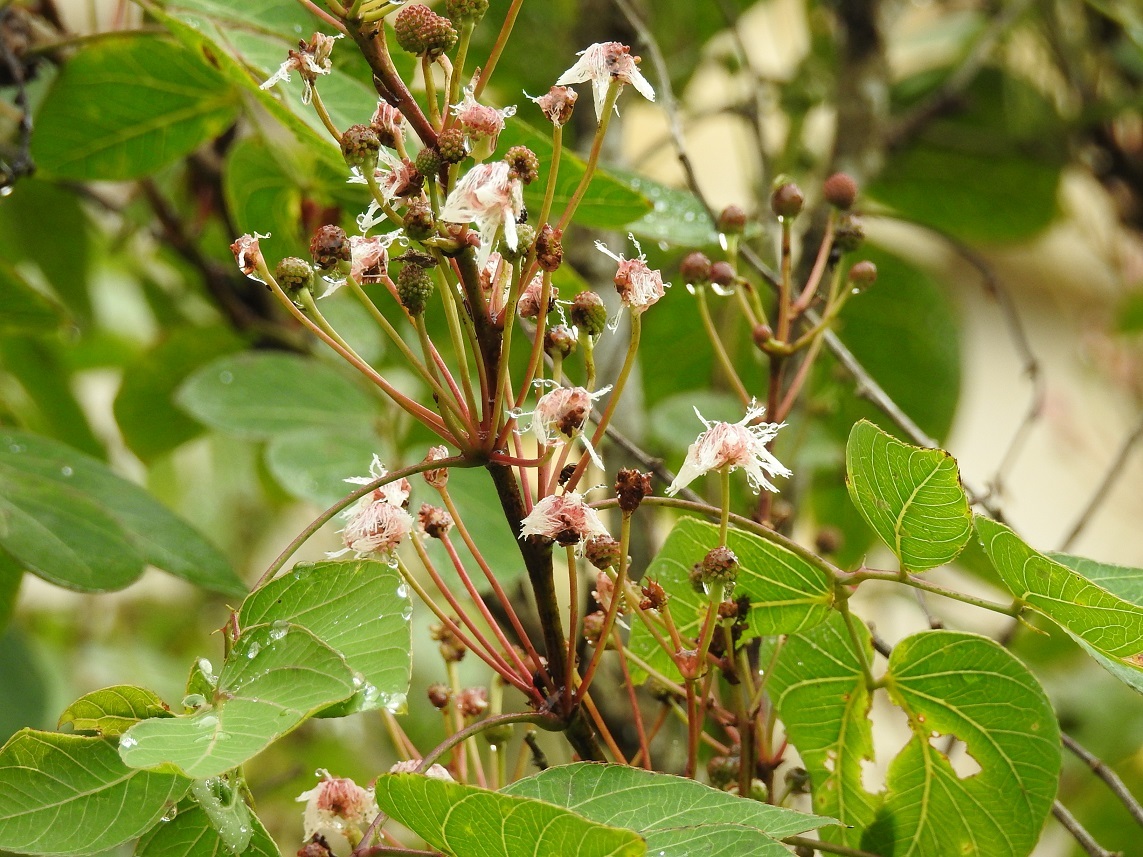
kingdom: Plantae
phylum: Tracheophyta
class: Magnoliopsida
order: Fabales
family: Fabaceae
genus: Mimosa
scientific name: Mimosa lactiflua
